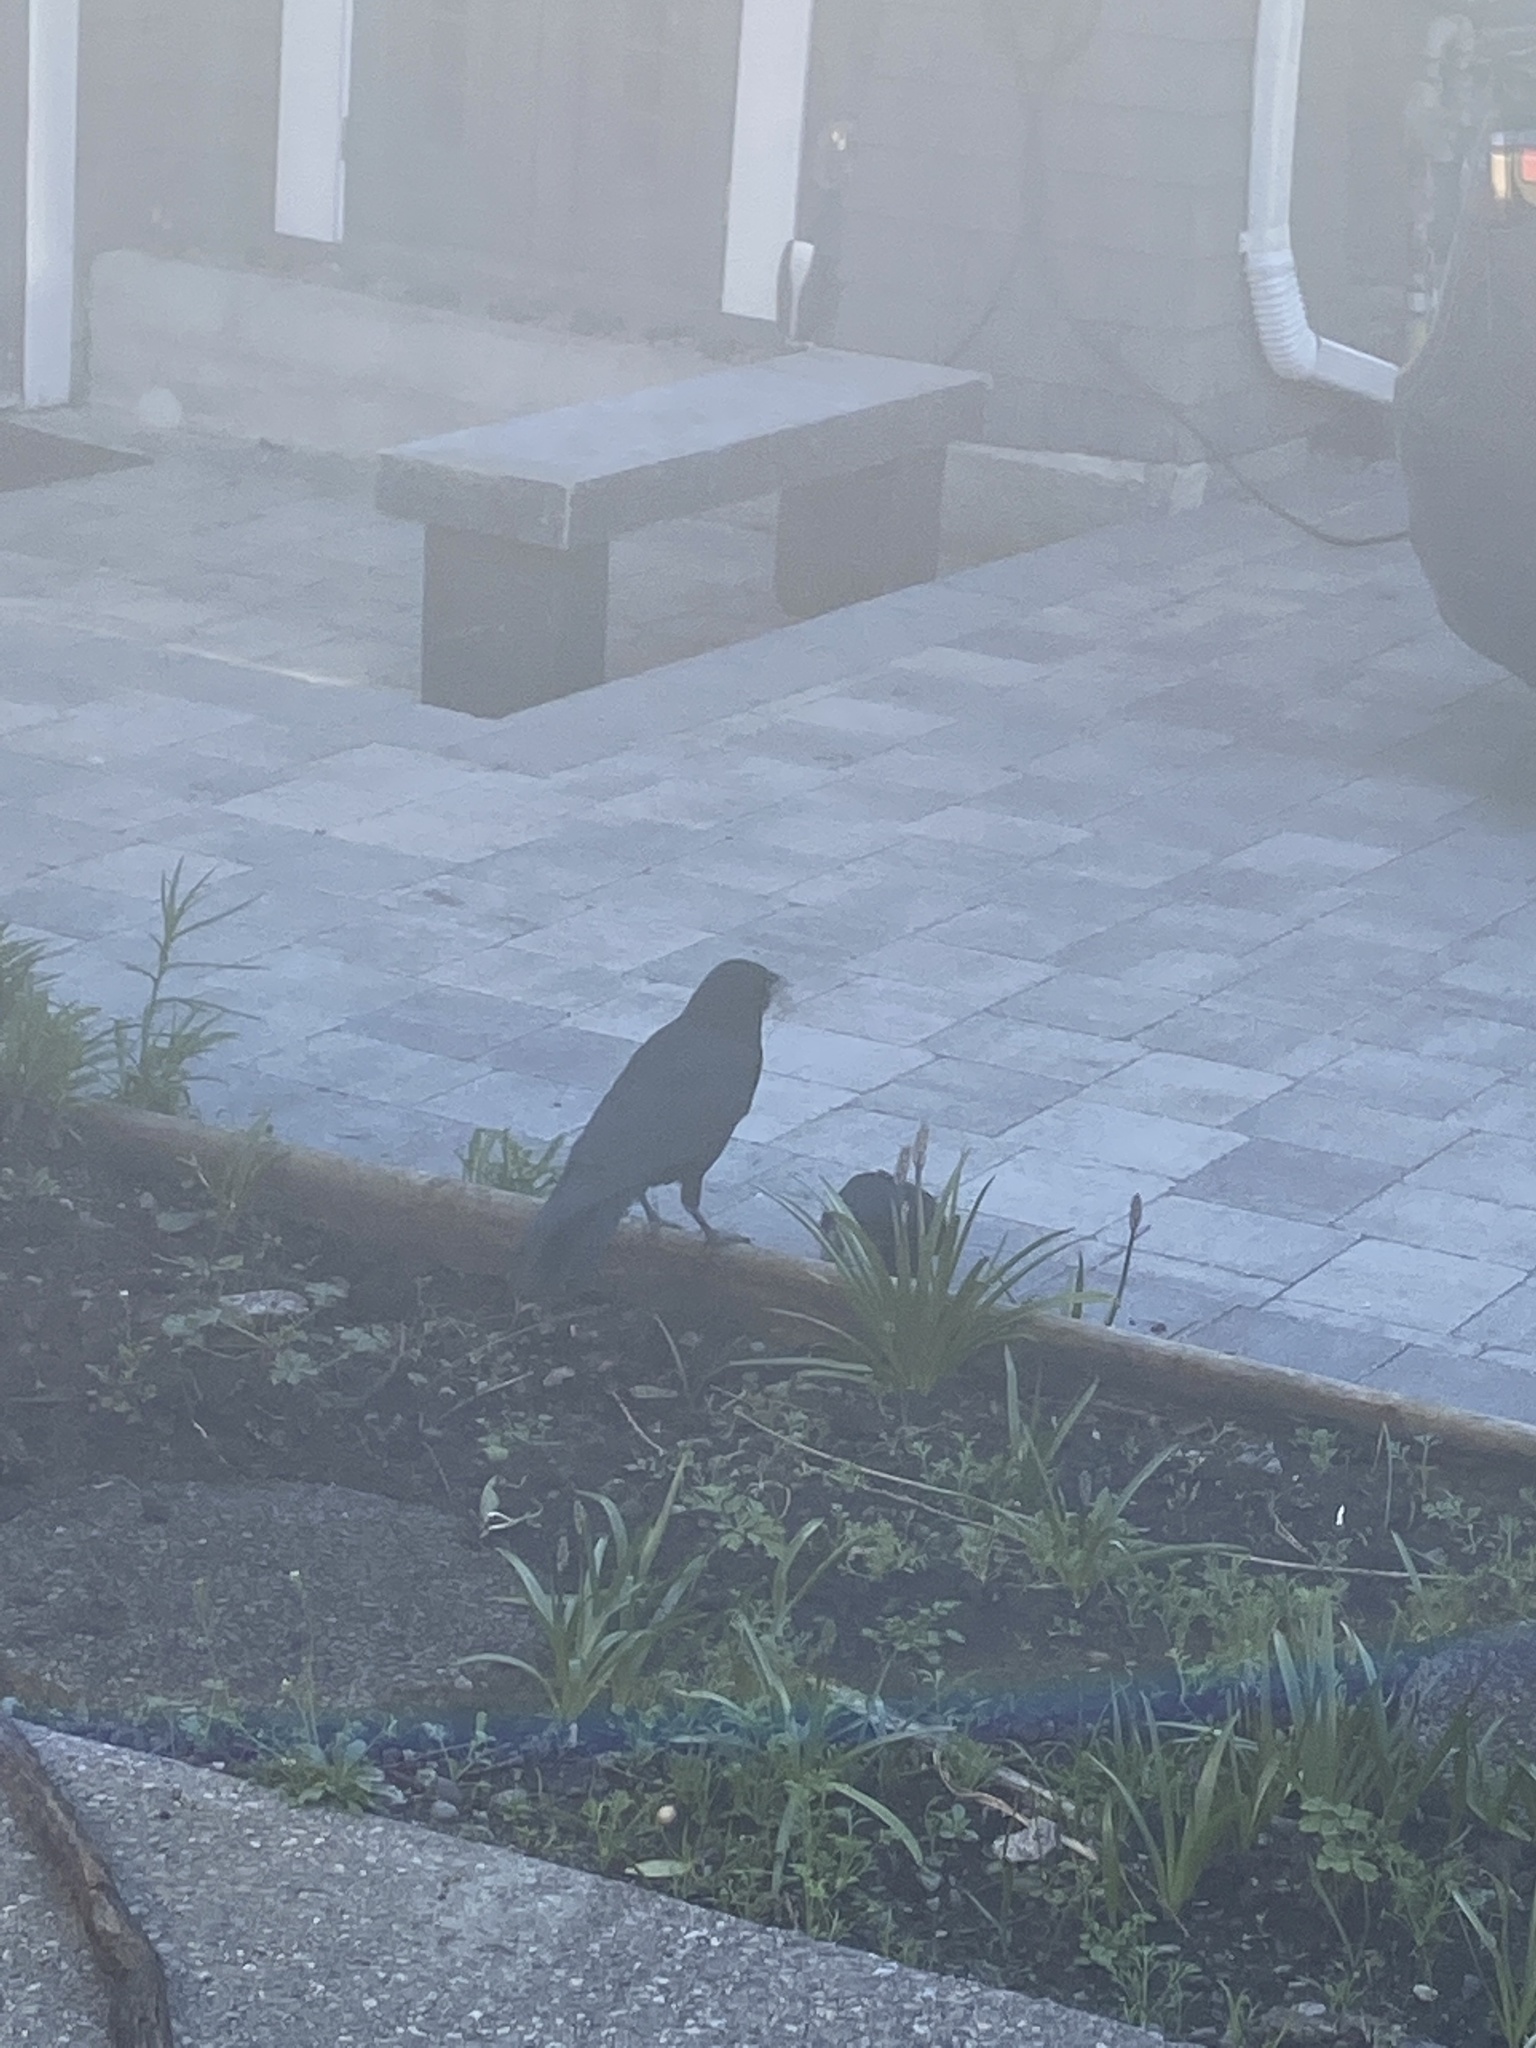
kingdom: Animalia
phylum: Chordata
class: Aves
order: Passeriformes
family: Corvidae
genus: Corvus
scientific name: Corvus brachyrhynchos
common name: American crow
